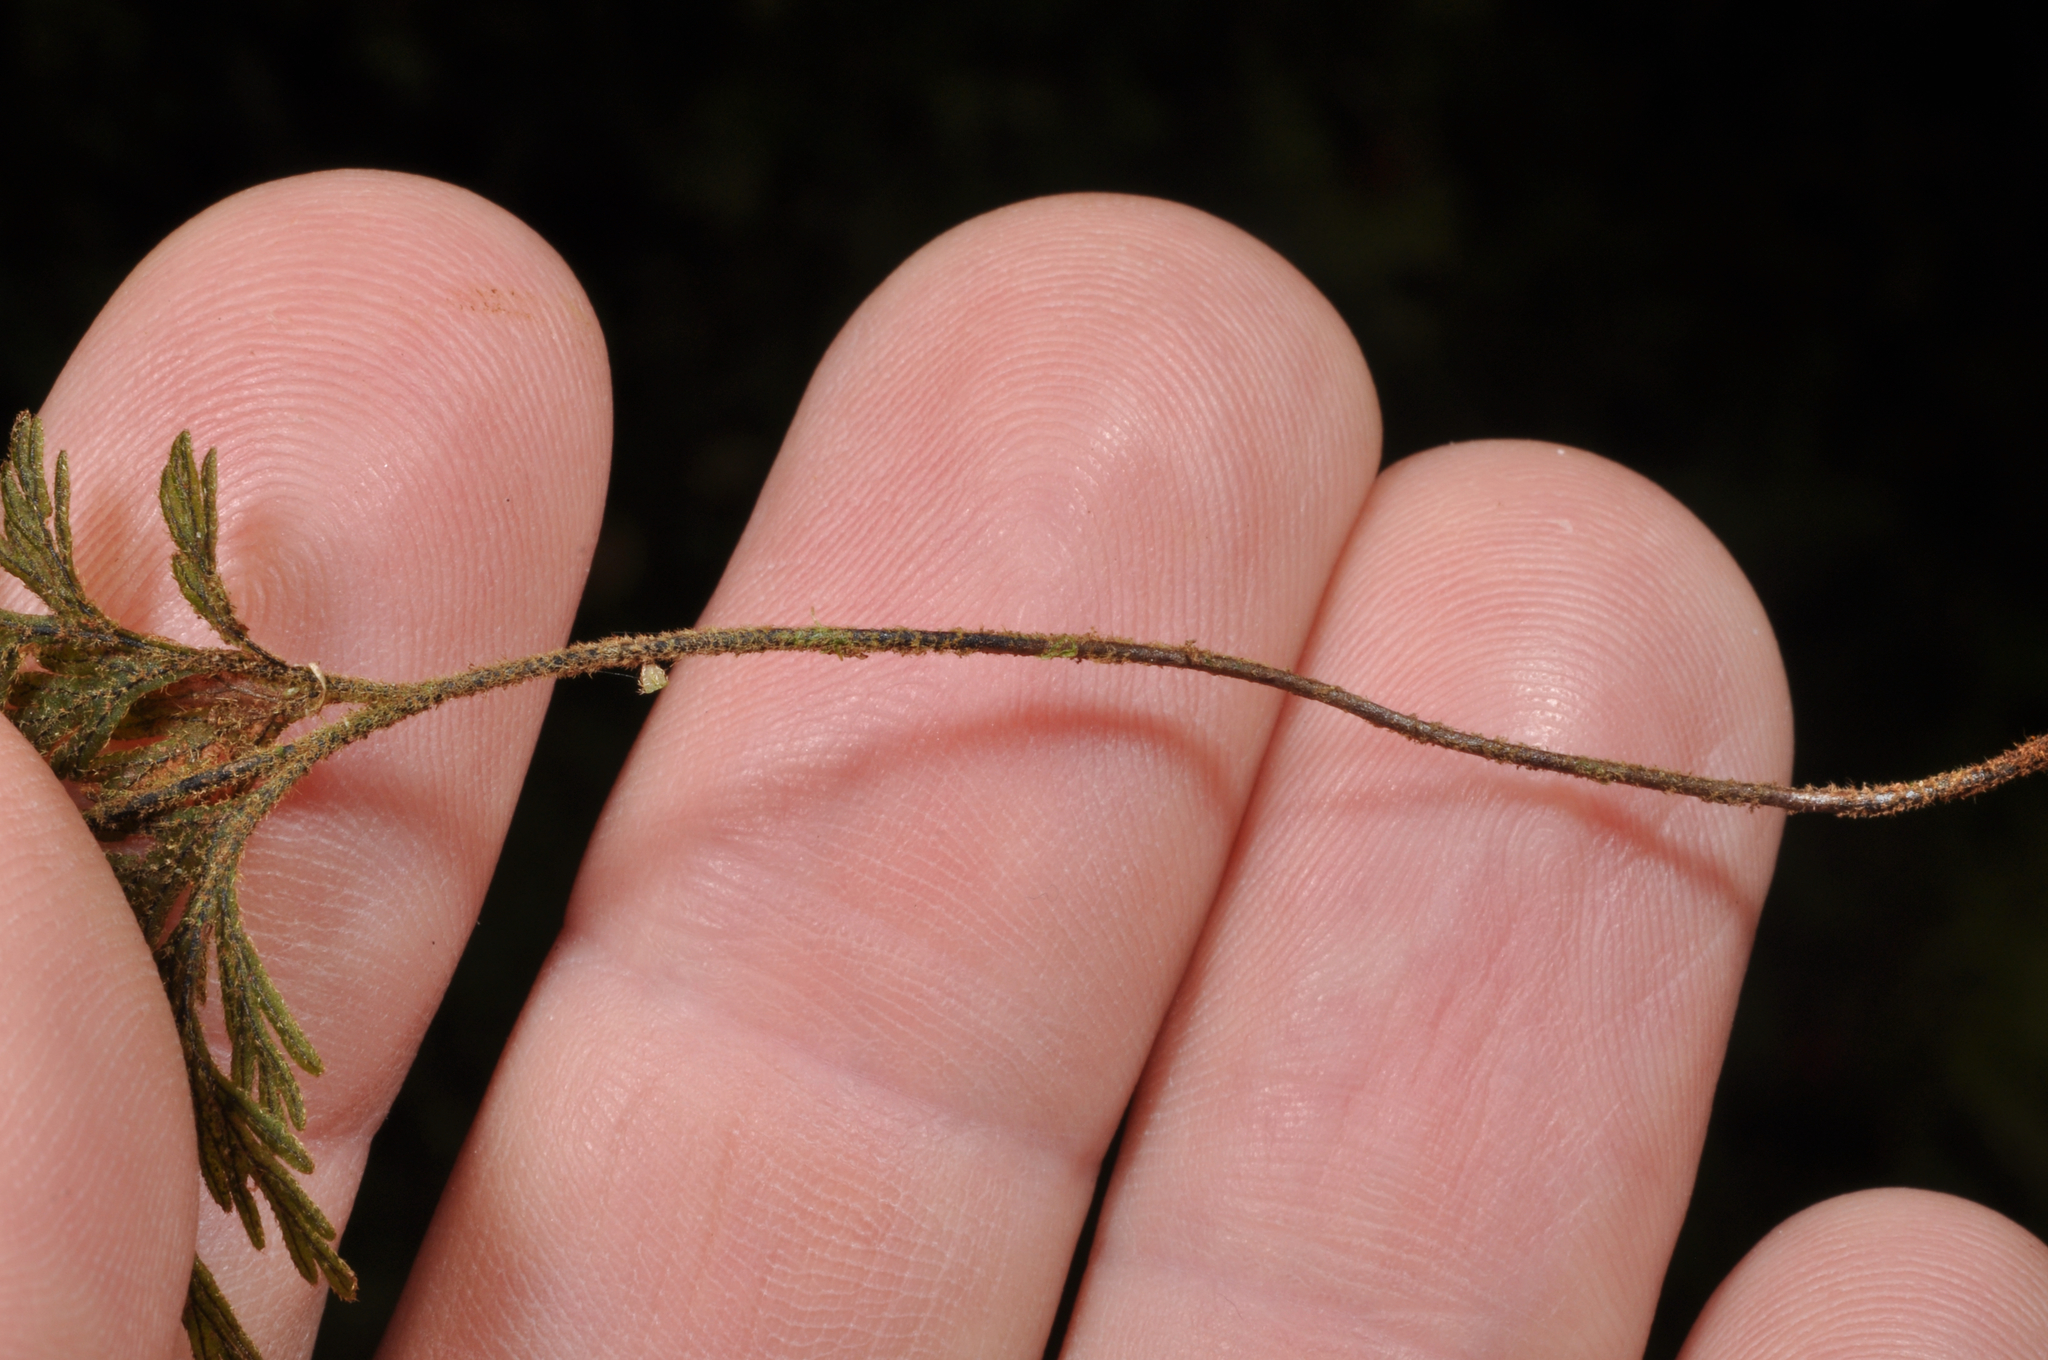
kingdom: Plantae
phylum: Tracheophyta
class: Polypodiopsida
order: Hymenophyllales
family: Hymenophyllaceae
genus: Hymenophyllum
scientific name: Hymenophyllum frankliniae
